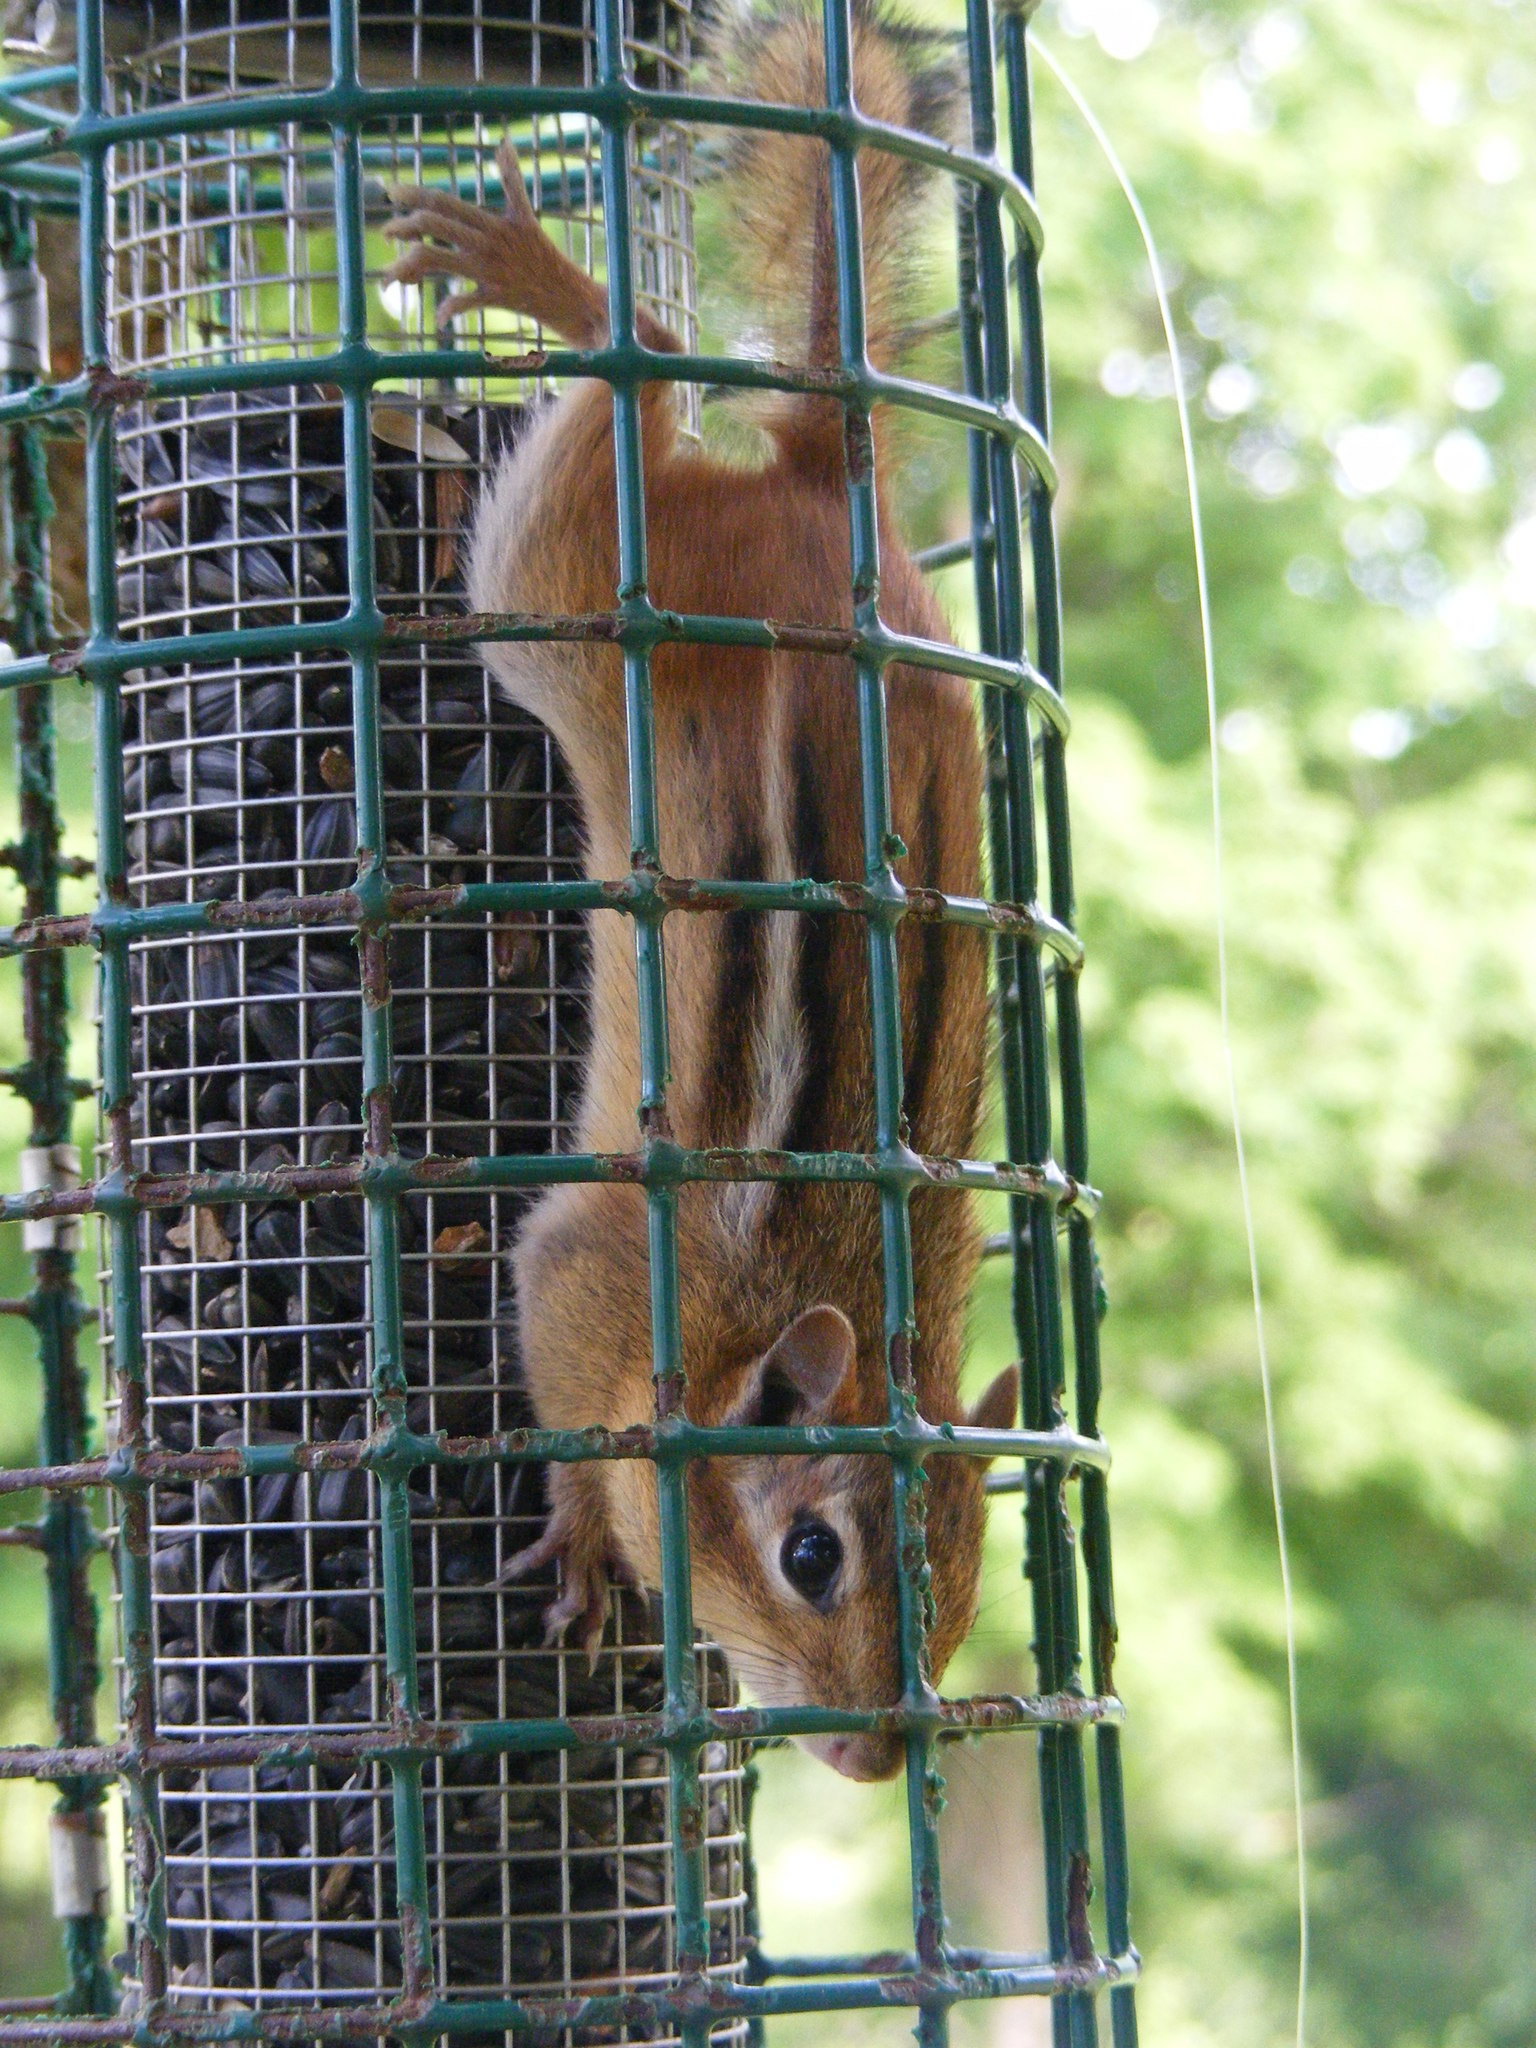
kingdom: Animalia
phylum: Chordata
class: Mammalia
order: Rodentia
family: Sciuridae
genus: Tamias
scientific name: Tamias striatus
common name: Eastern chipmunk
